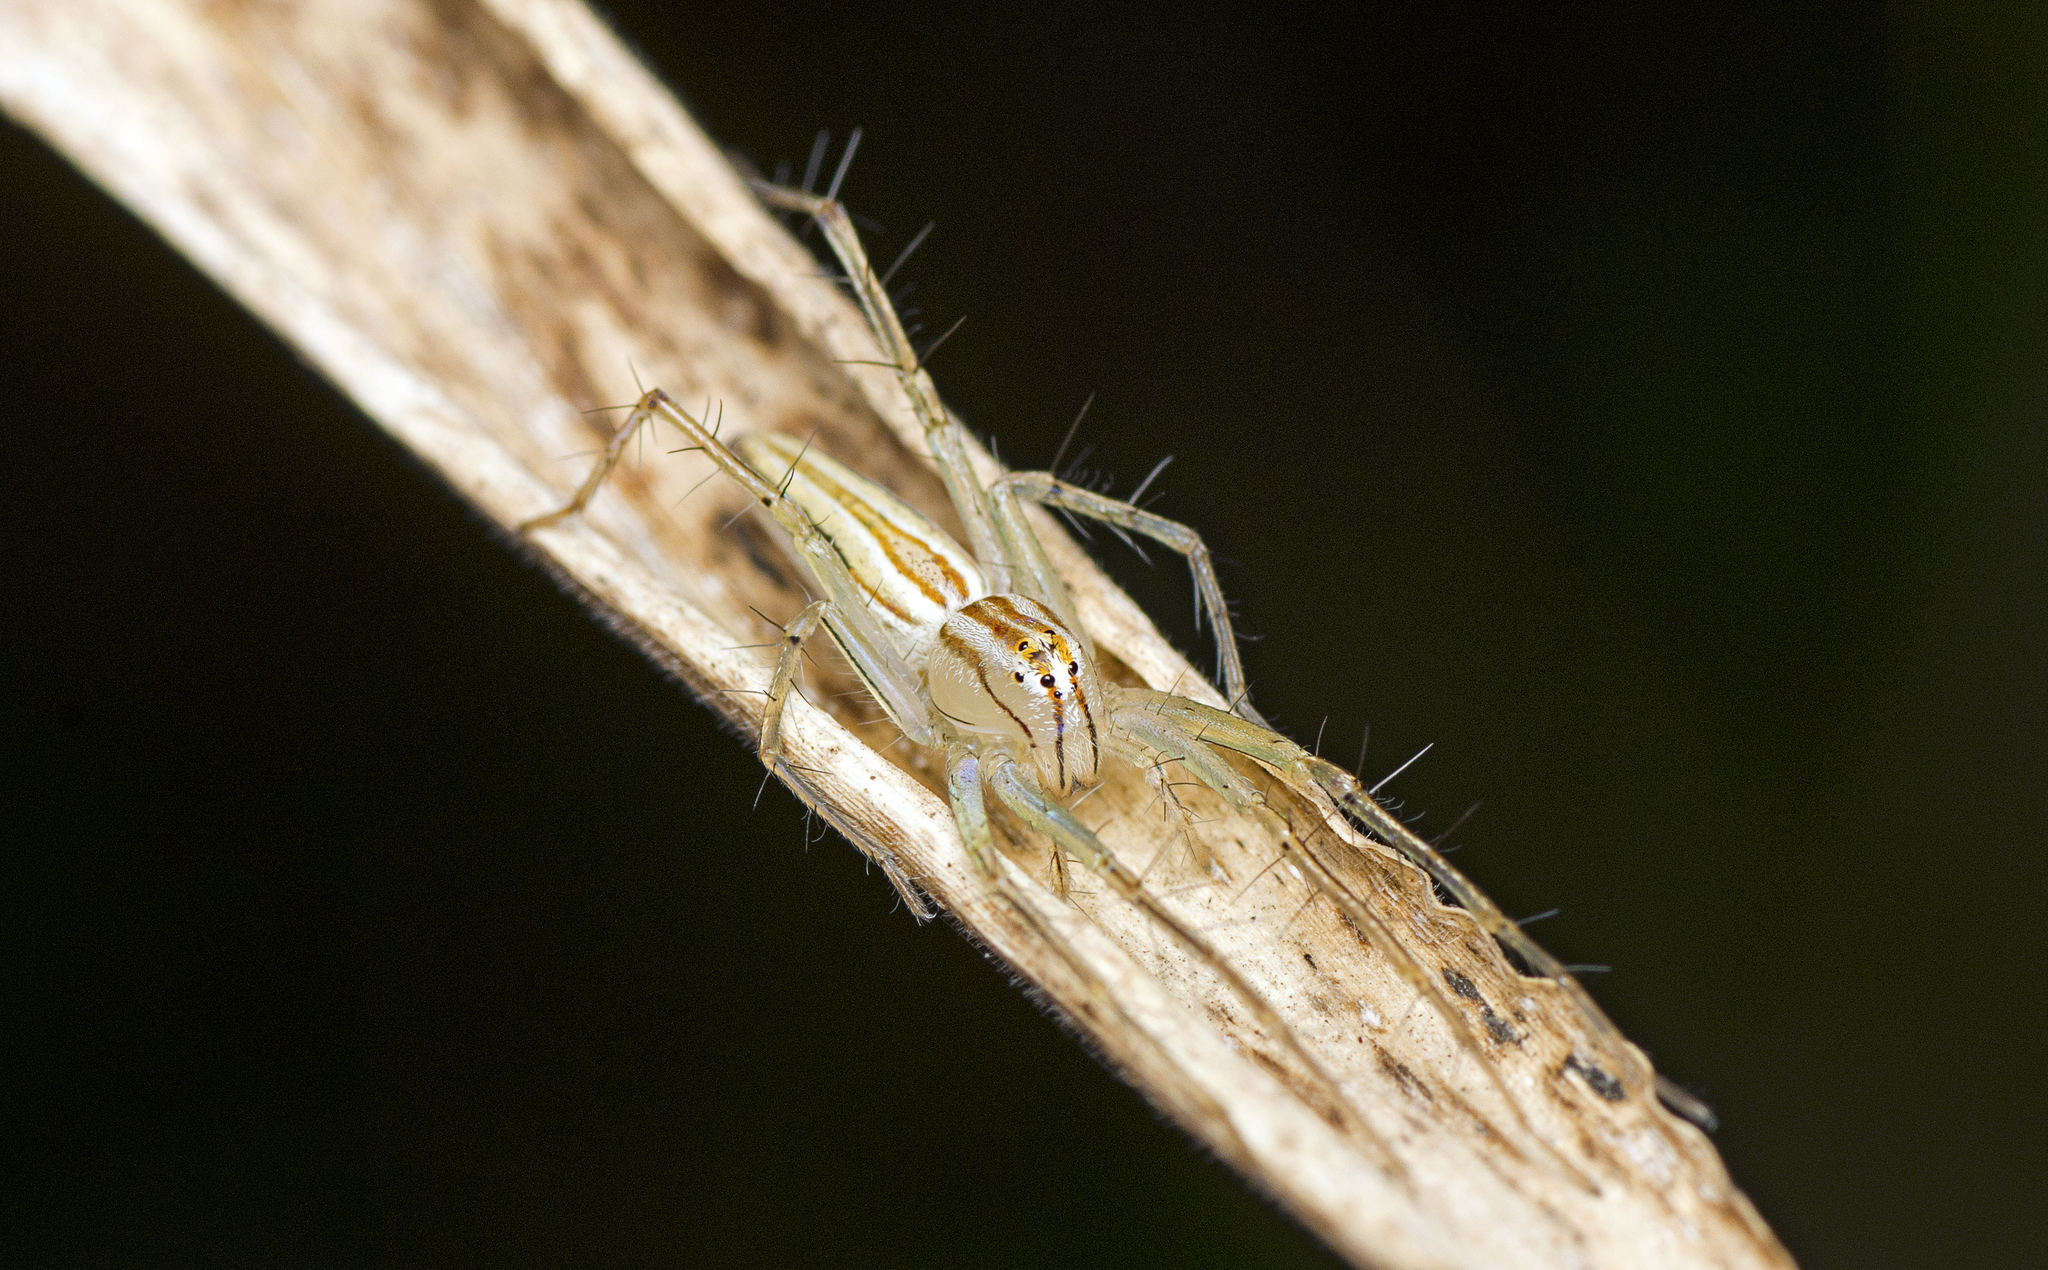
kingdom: Animalia
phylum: Arthropoda
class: Arachnida
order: Araneae
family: Oxyopidae
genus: Oxyopes
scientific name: Oxyopes macilentus
